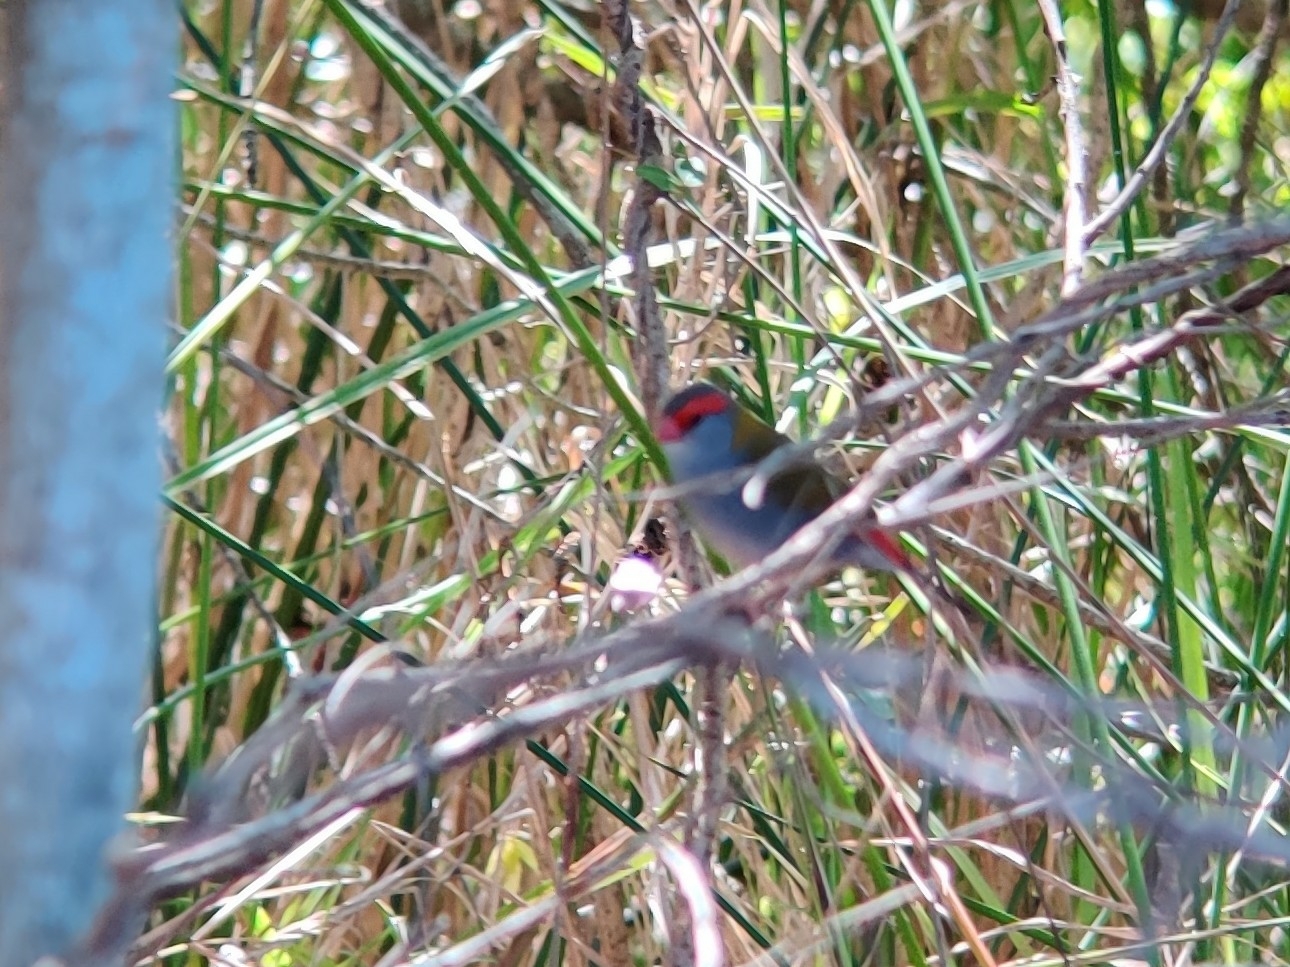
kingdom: Animalia
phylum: Chordata
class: Aves
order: Passeriformes
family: Estrildidae
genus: Neochmia
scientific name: Neochmia temporalis
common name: Red-browed finch
